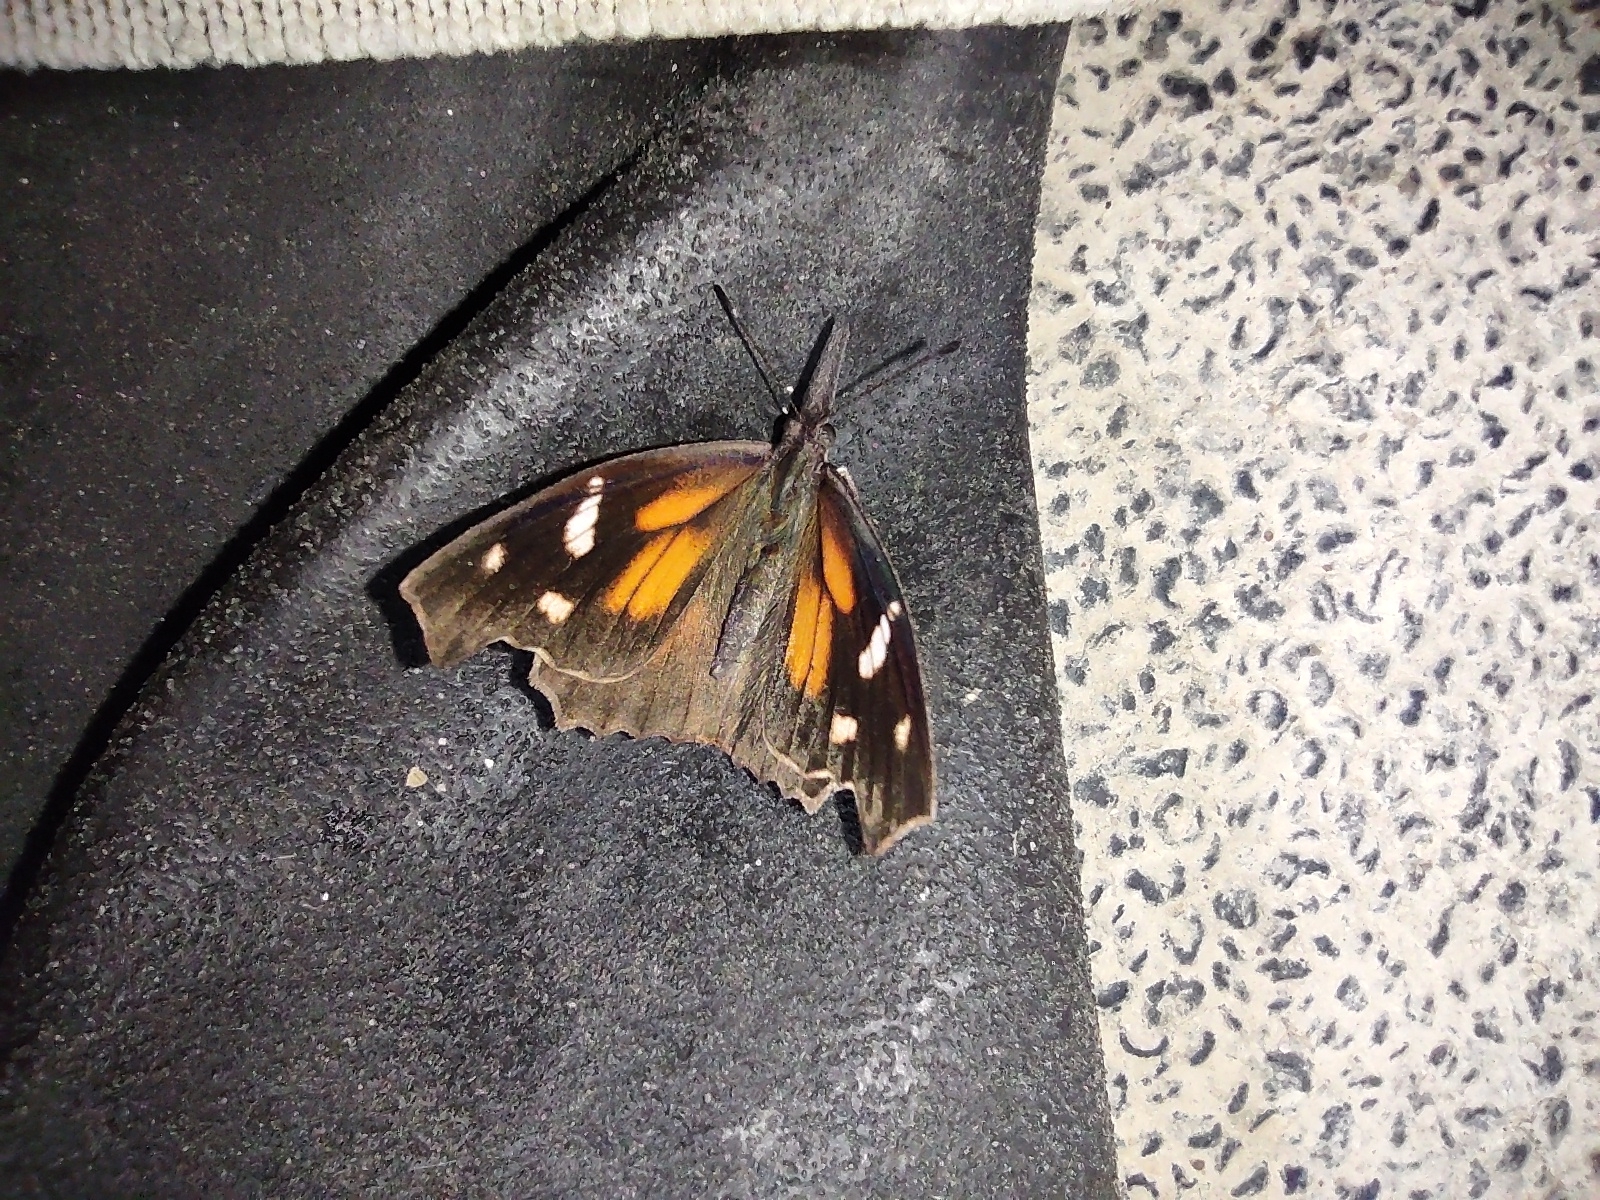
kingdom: Animalia
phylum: Arthropoda
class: Insecta
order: Lepidoptera
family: Nymphalidae
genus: Libytheana
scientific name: Libytheana carinenta
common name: American snout
